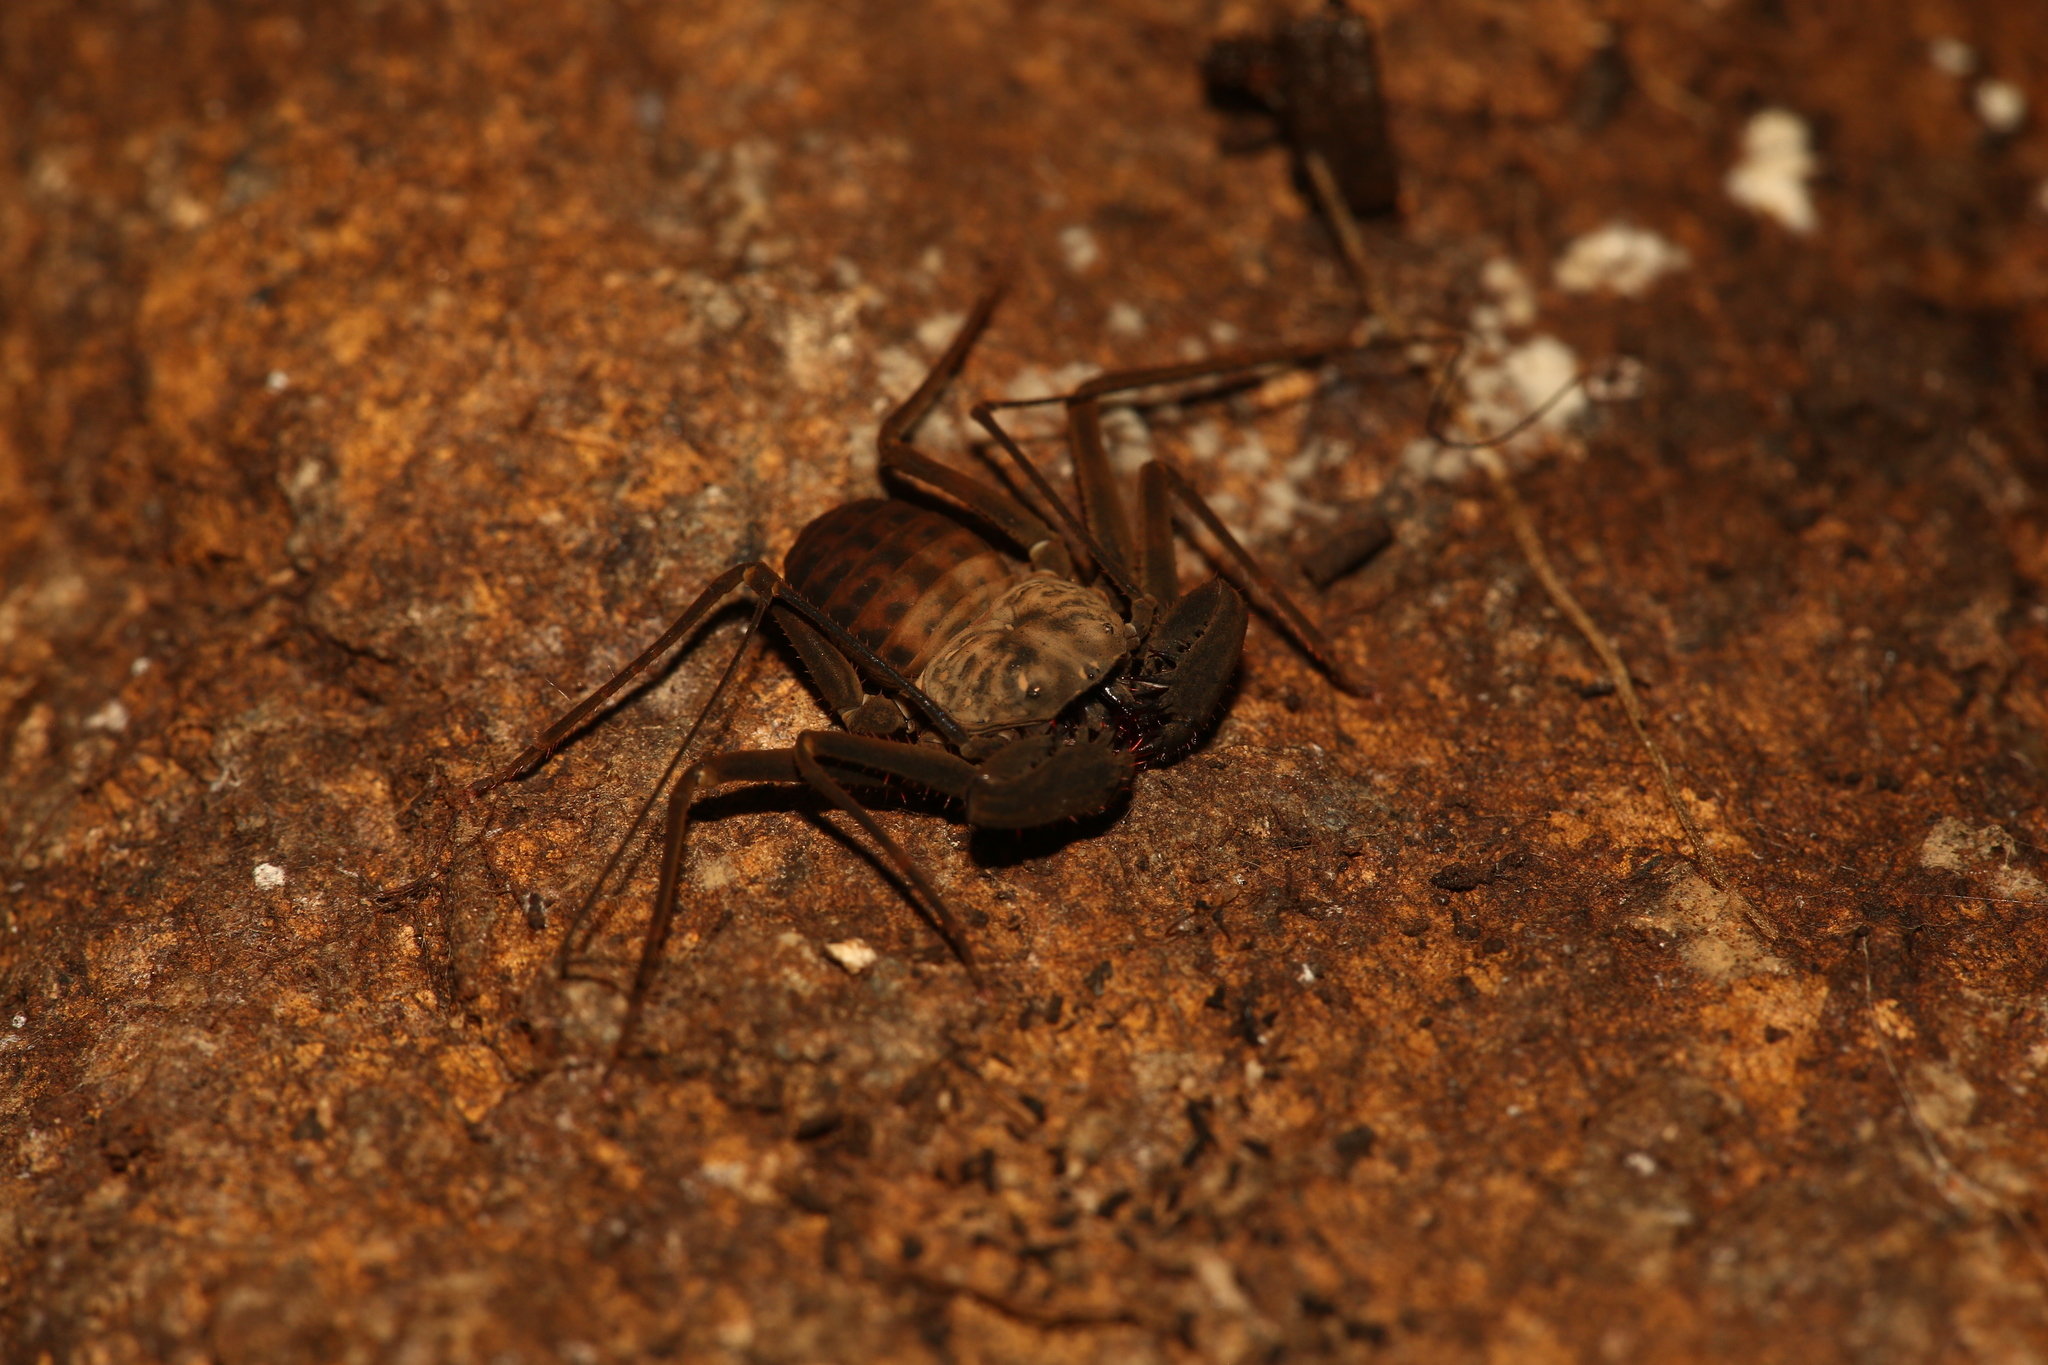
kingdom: Animalia
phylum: Arthropoda
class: Arachnida
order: Amblypygi
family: Charinidae
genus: Charinus
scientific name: Charinus neocaledonicus
